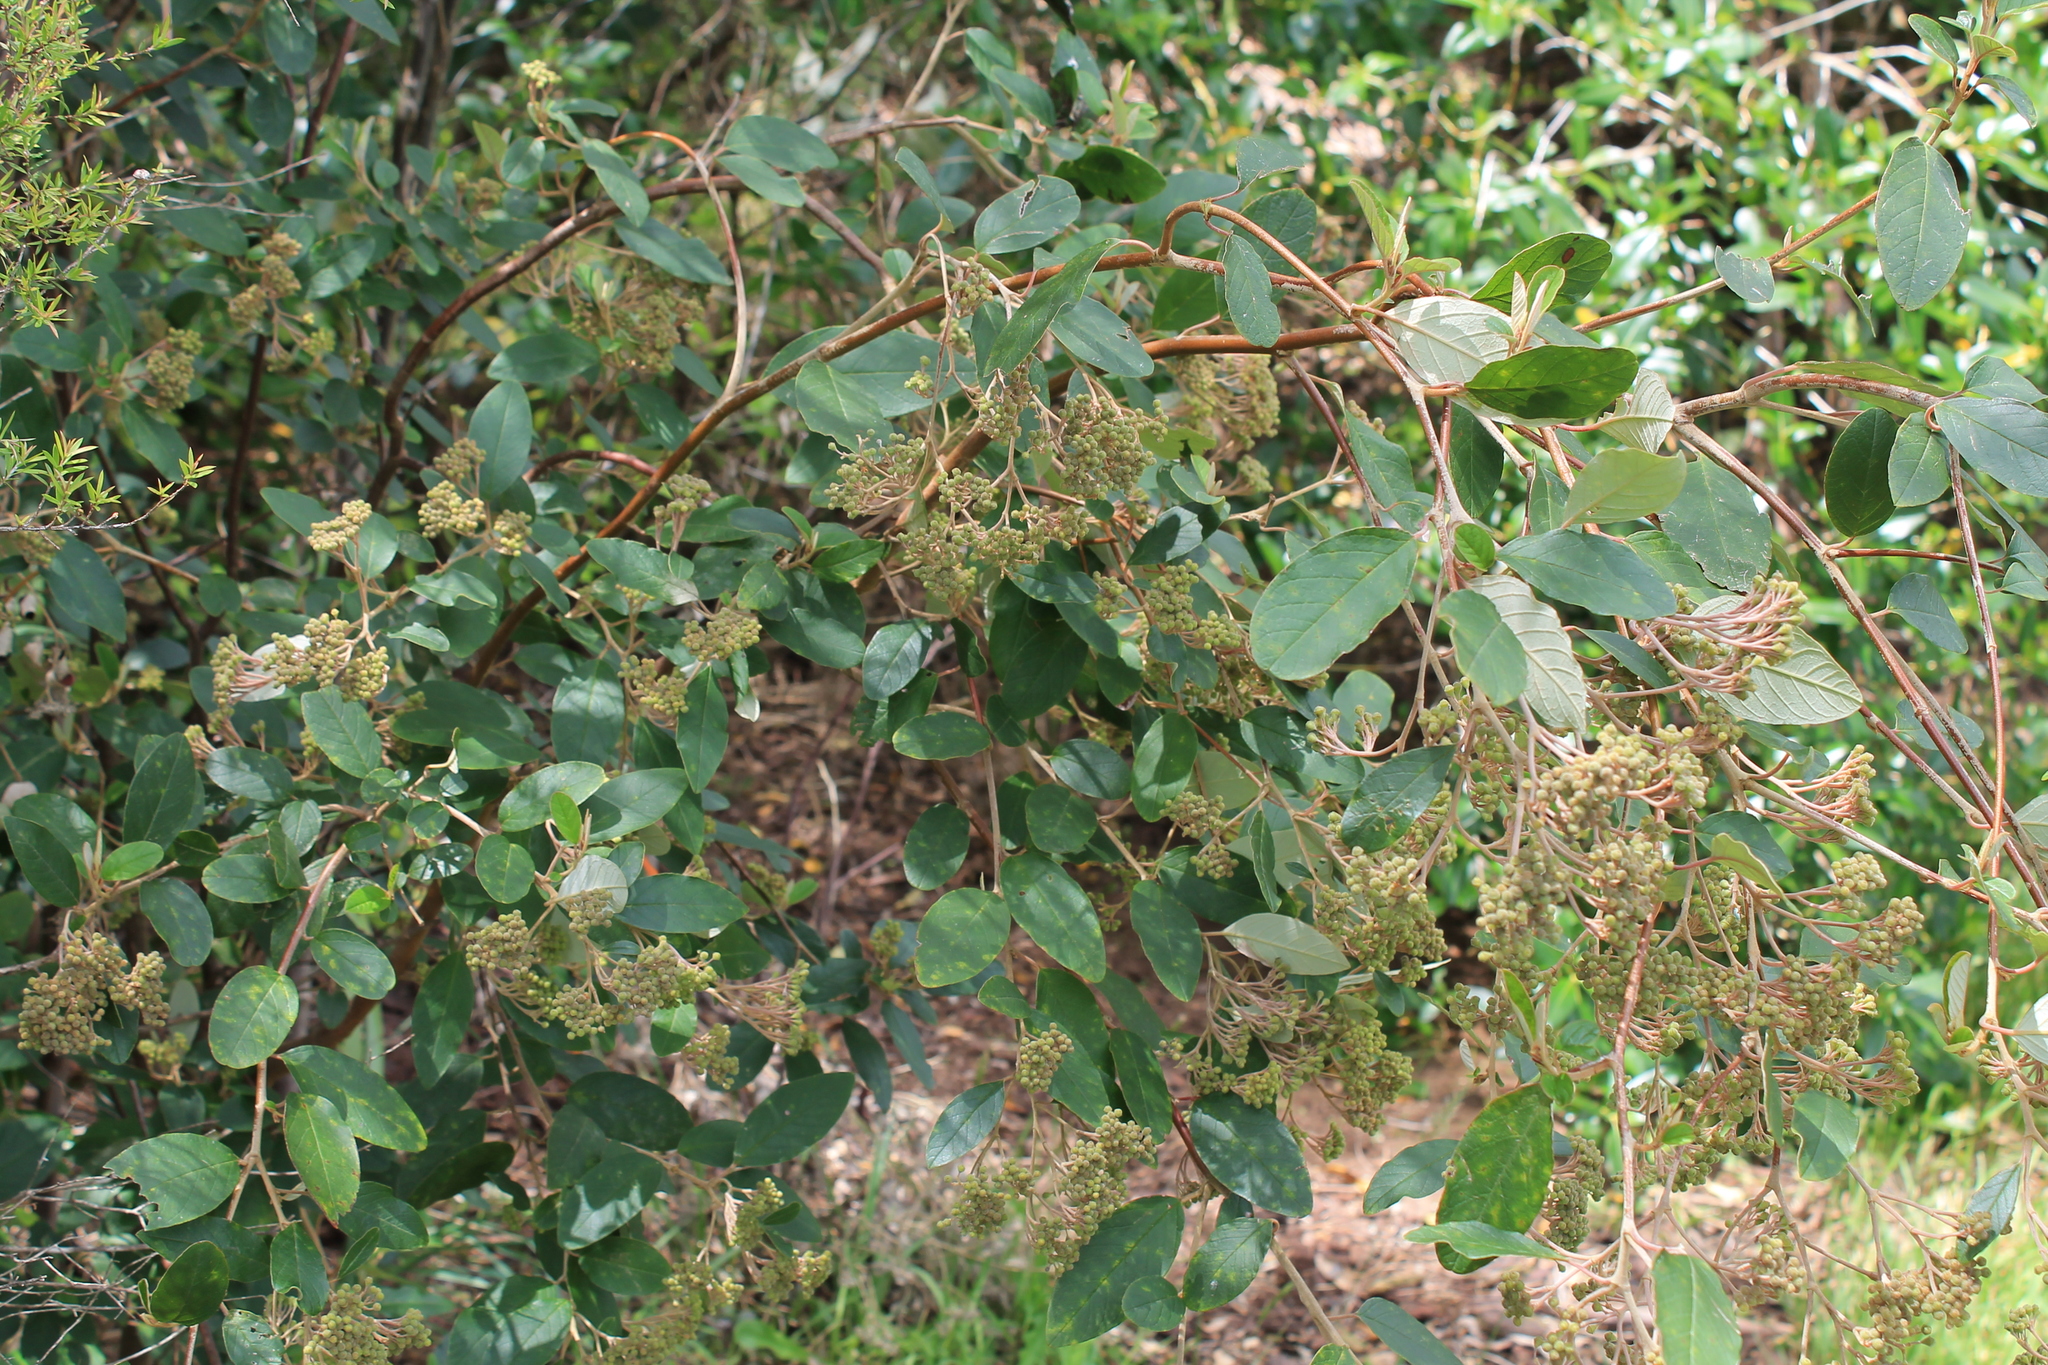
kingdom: Plantae
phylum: Tracheophyta
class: Magnoliopsida
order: Rosales
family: Rhamnaceae
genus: Pomaderris
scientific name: Pomaderris kumeraho
